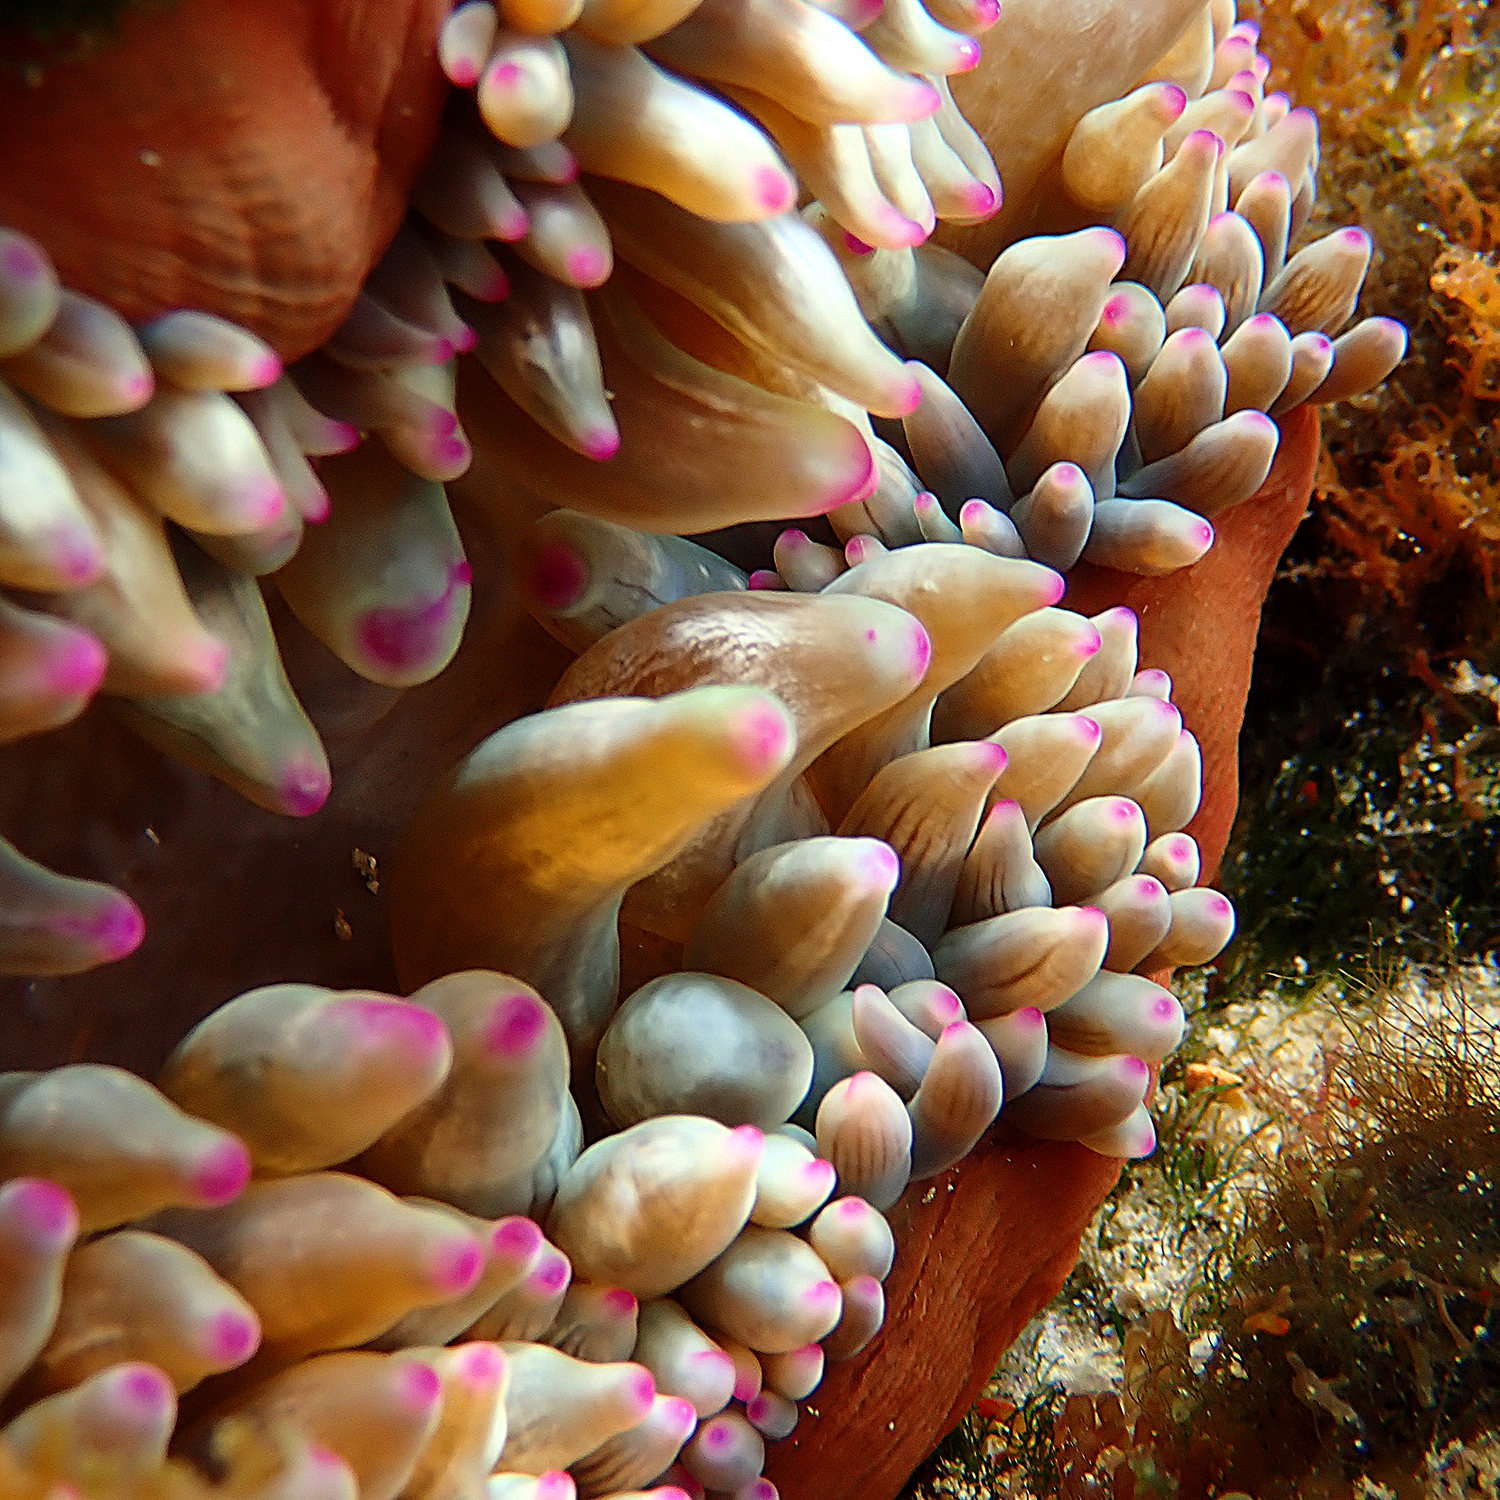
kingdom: Animalia
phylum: Cnidaria
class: Anthozoa
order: Actiniaria
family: Actiniidae
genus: Entacmaea
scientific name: Entacmaea quadricolor
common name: Bulb tentacle sea anemone
